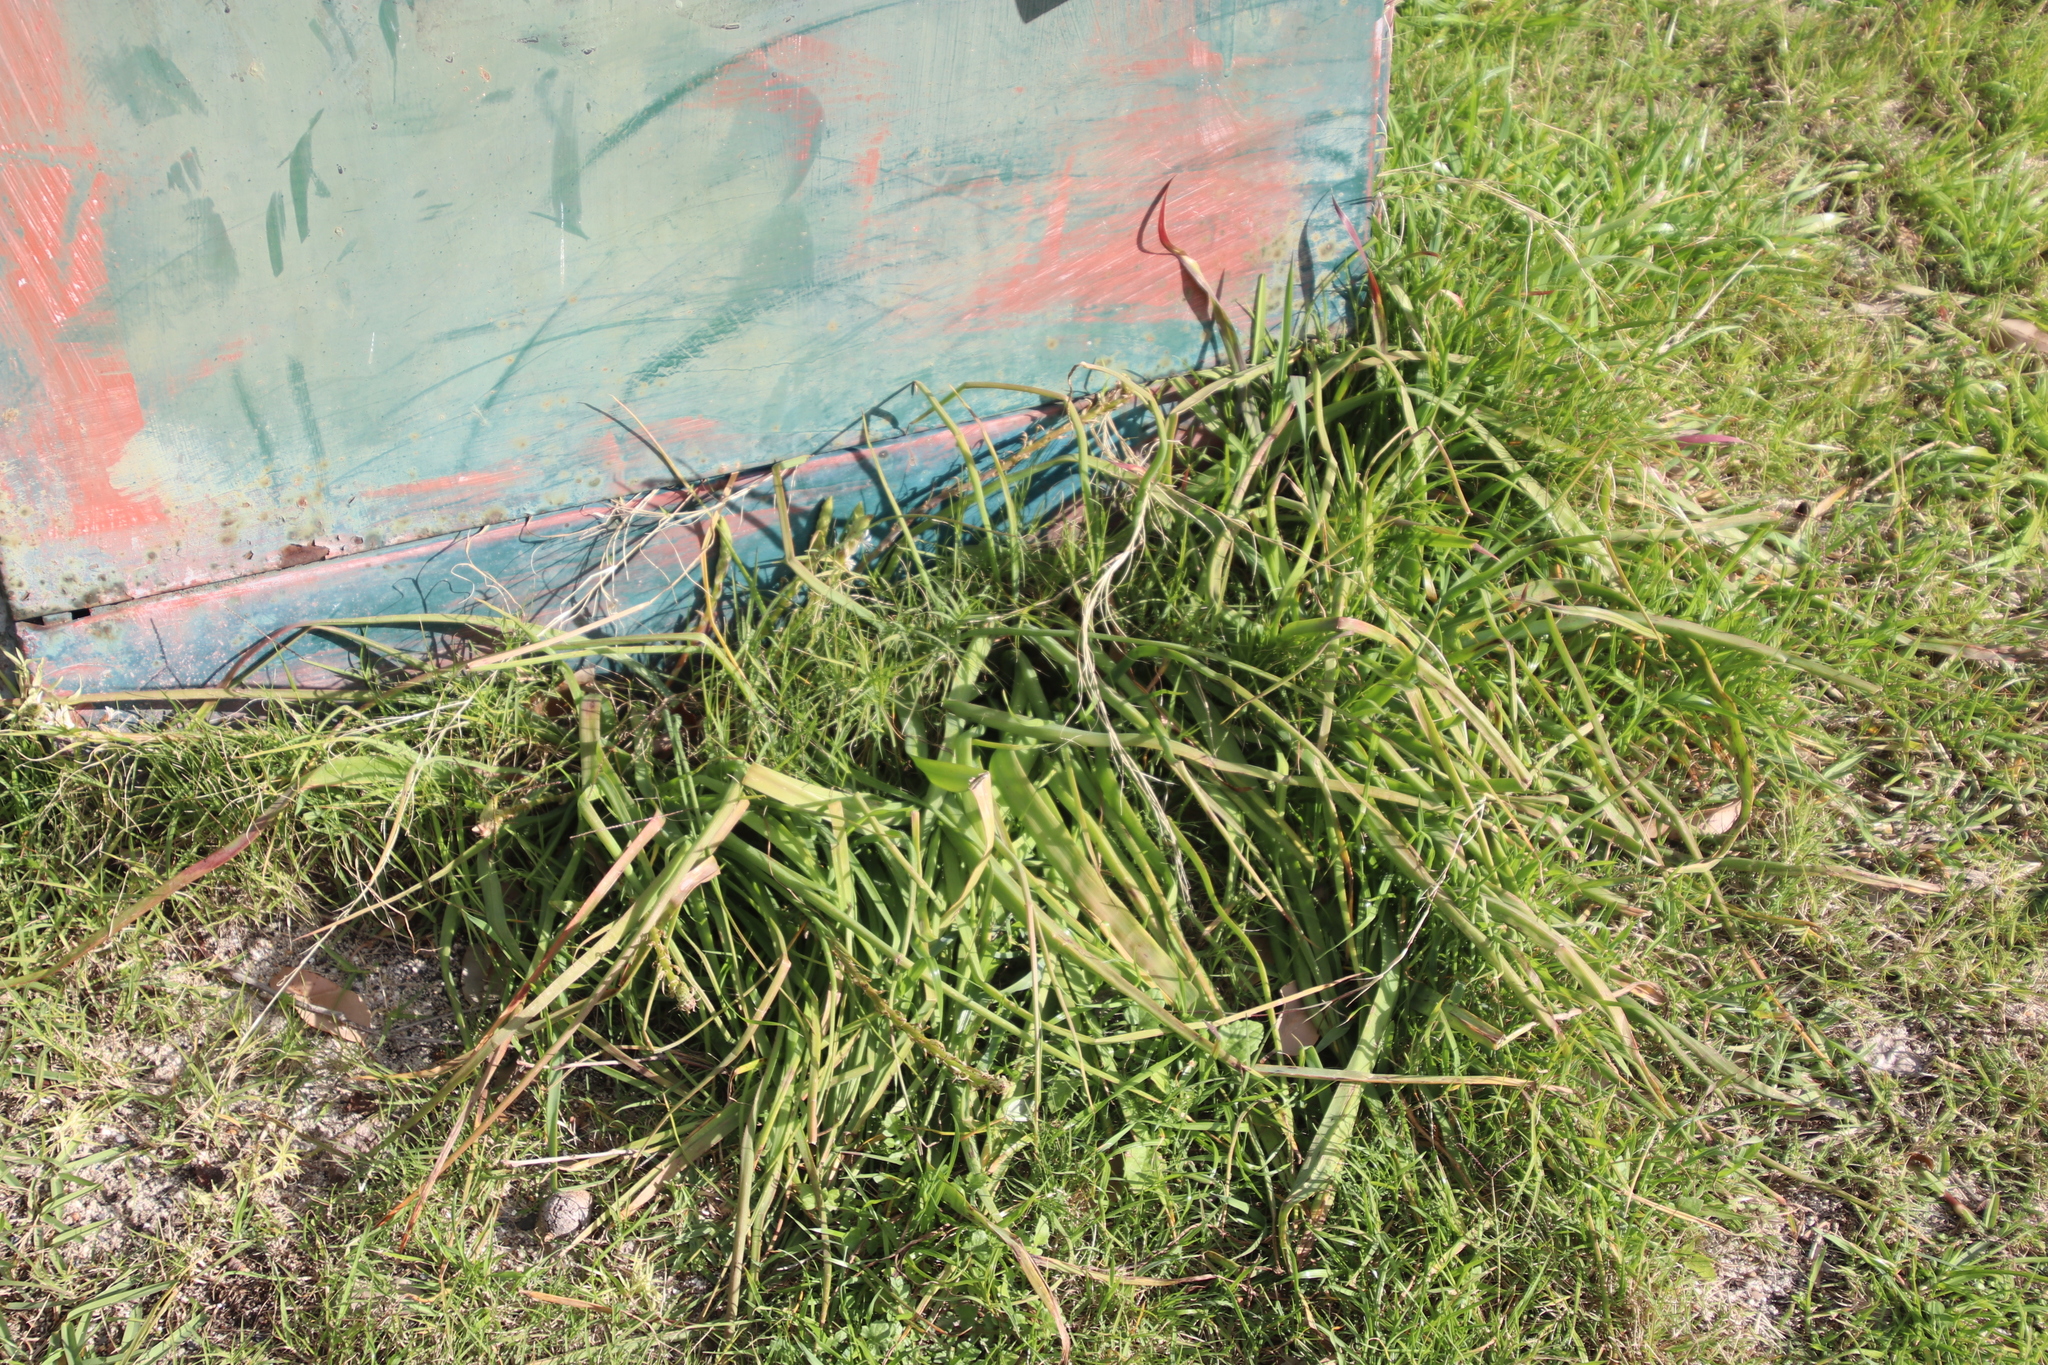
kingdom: Plantae
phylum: Tracheophyta
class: Liliopsida
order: Asparagales
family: Asphodelaceae
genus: Trachyandra
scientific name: Trachyandra ciliata
